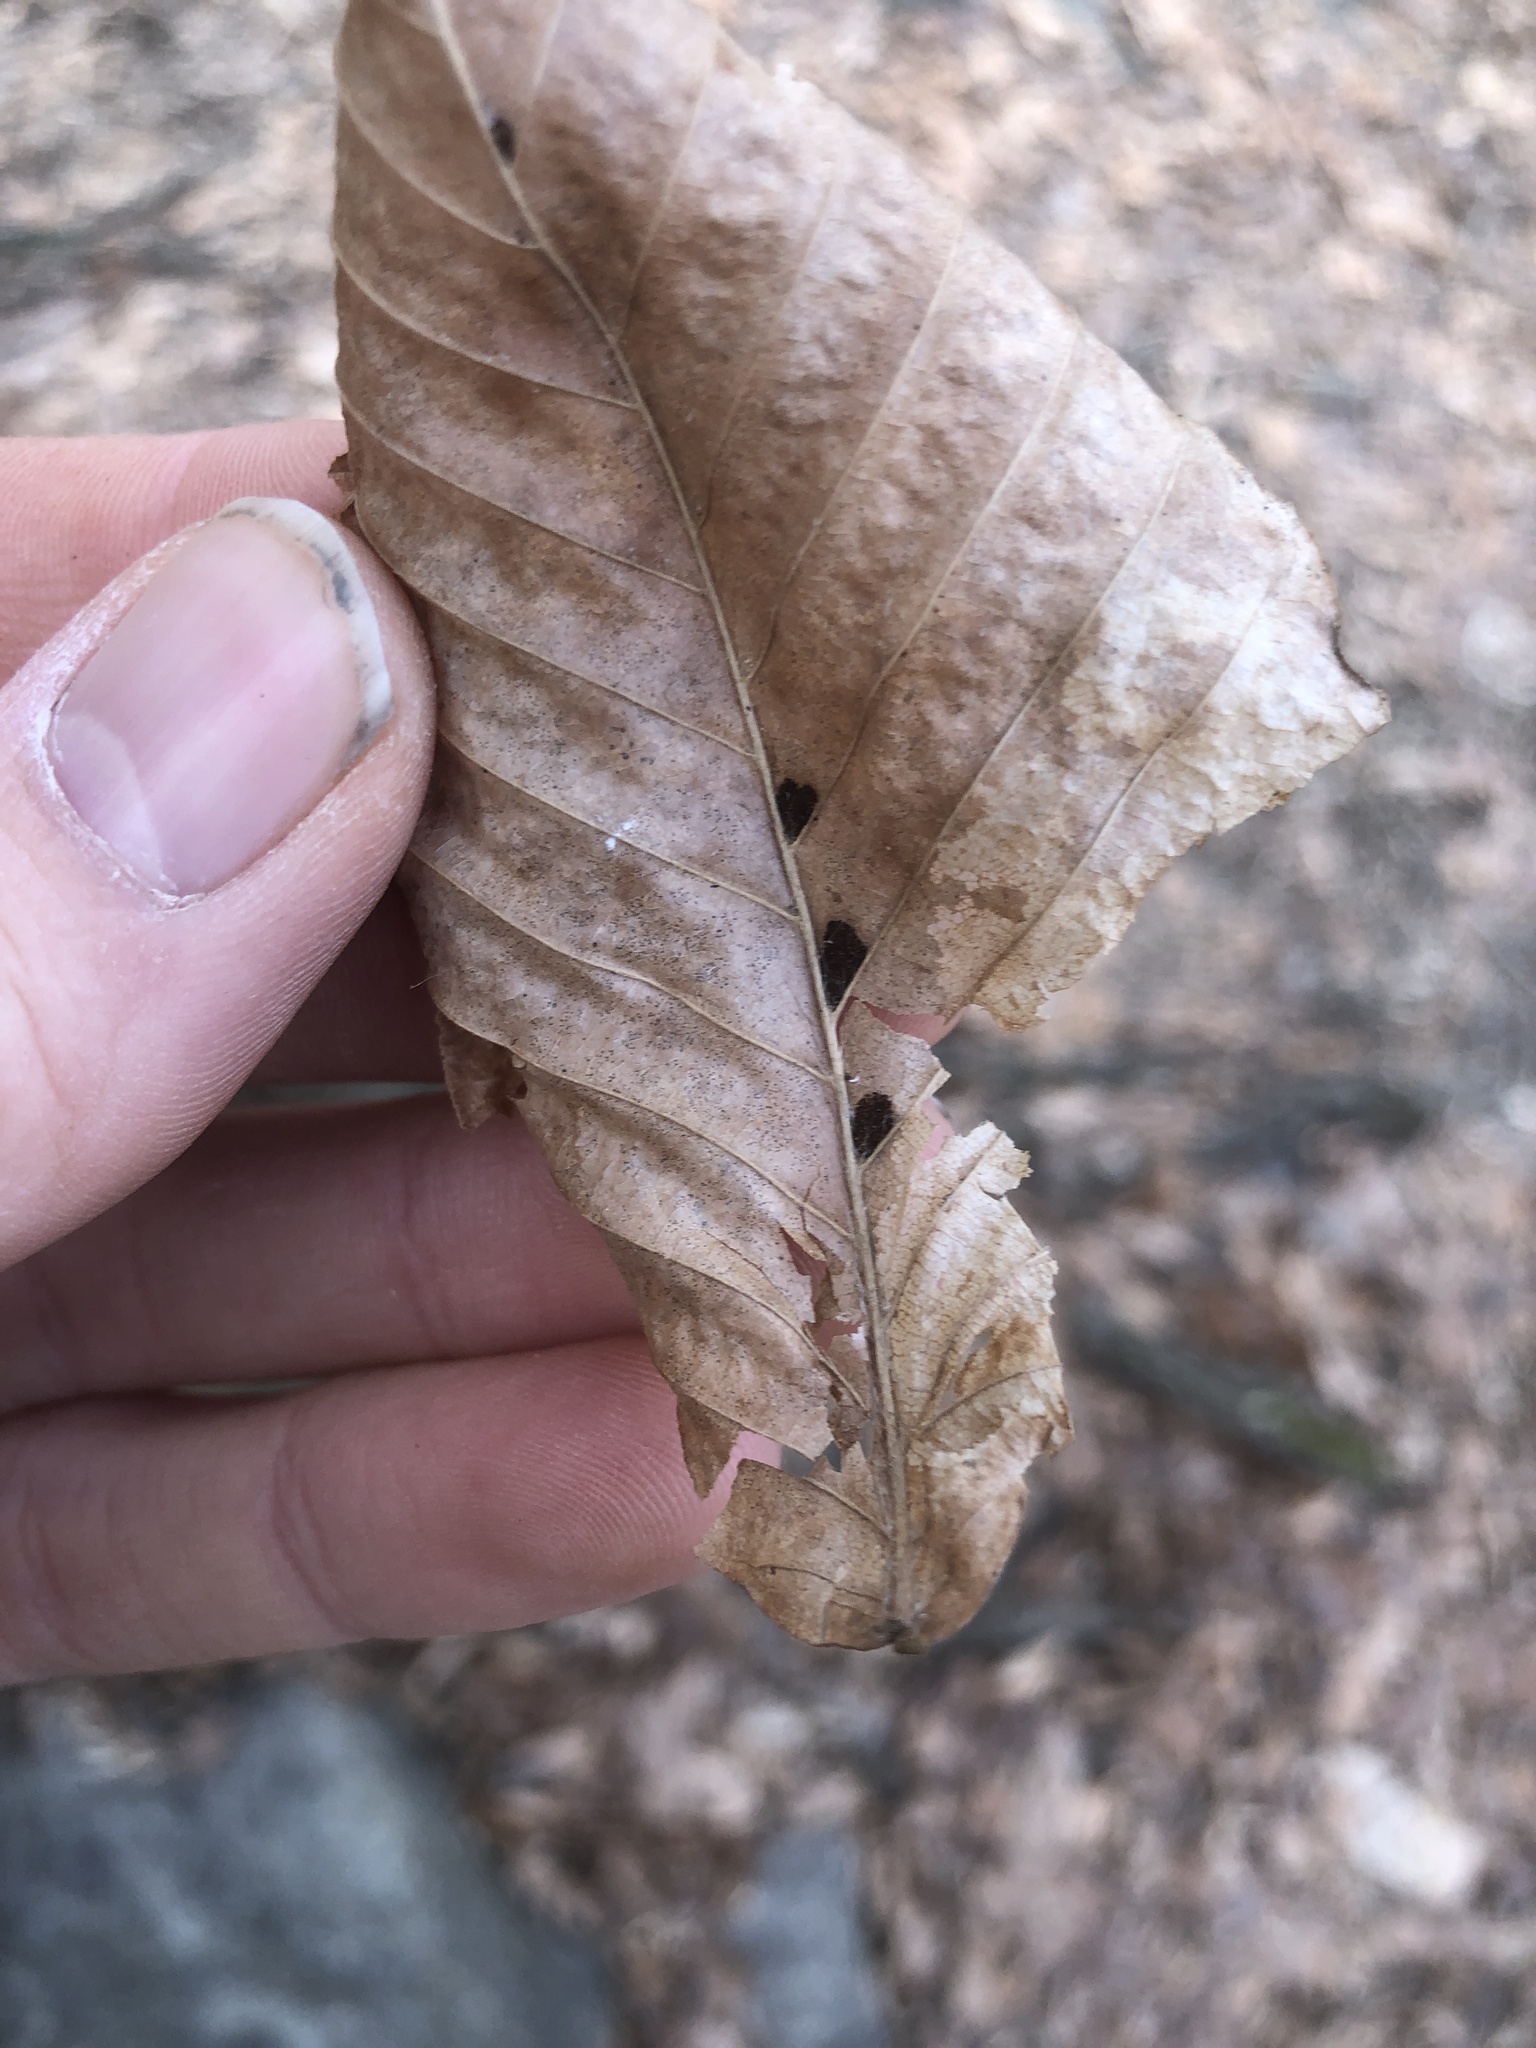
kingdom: Animalia
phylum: Arthropoda
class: Arachnida
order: Trombidiformes
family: Eriophyidae
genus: Acalitus
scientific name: Acalitus
